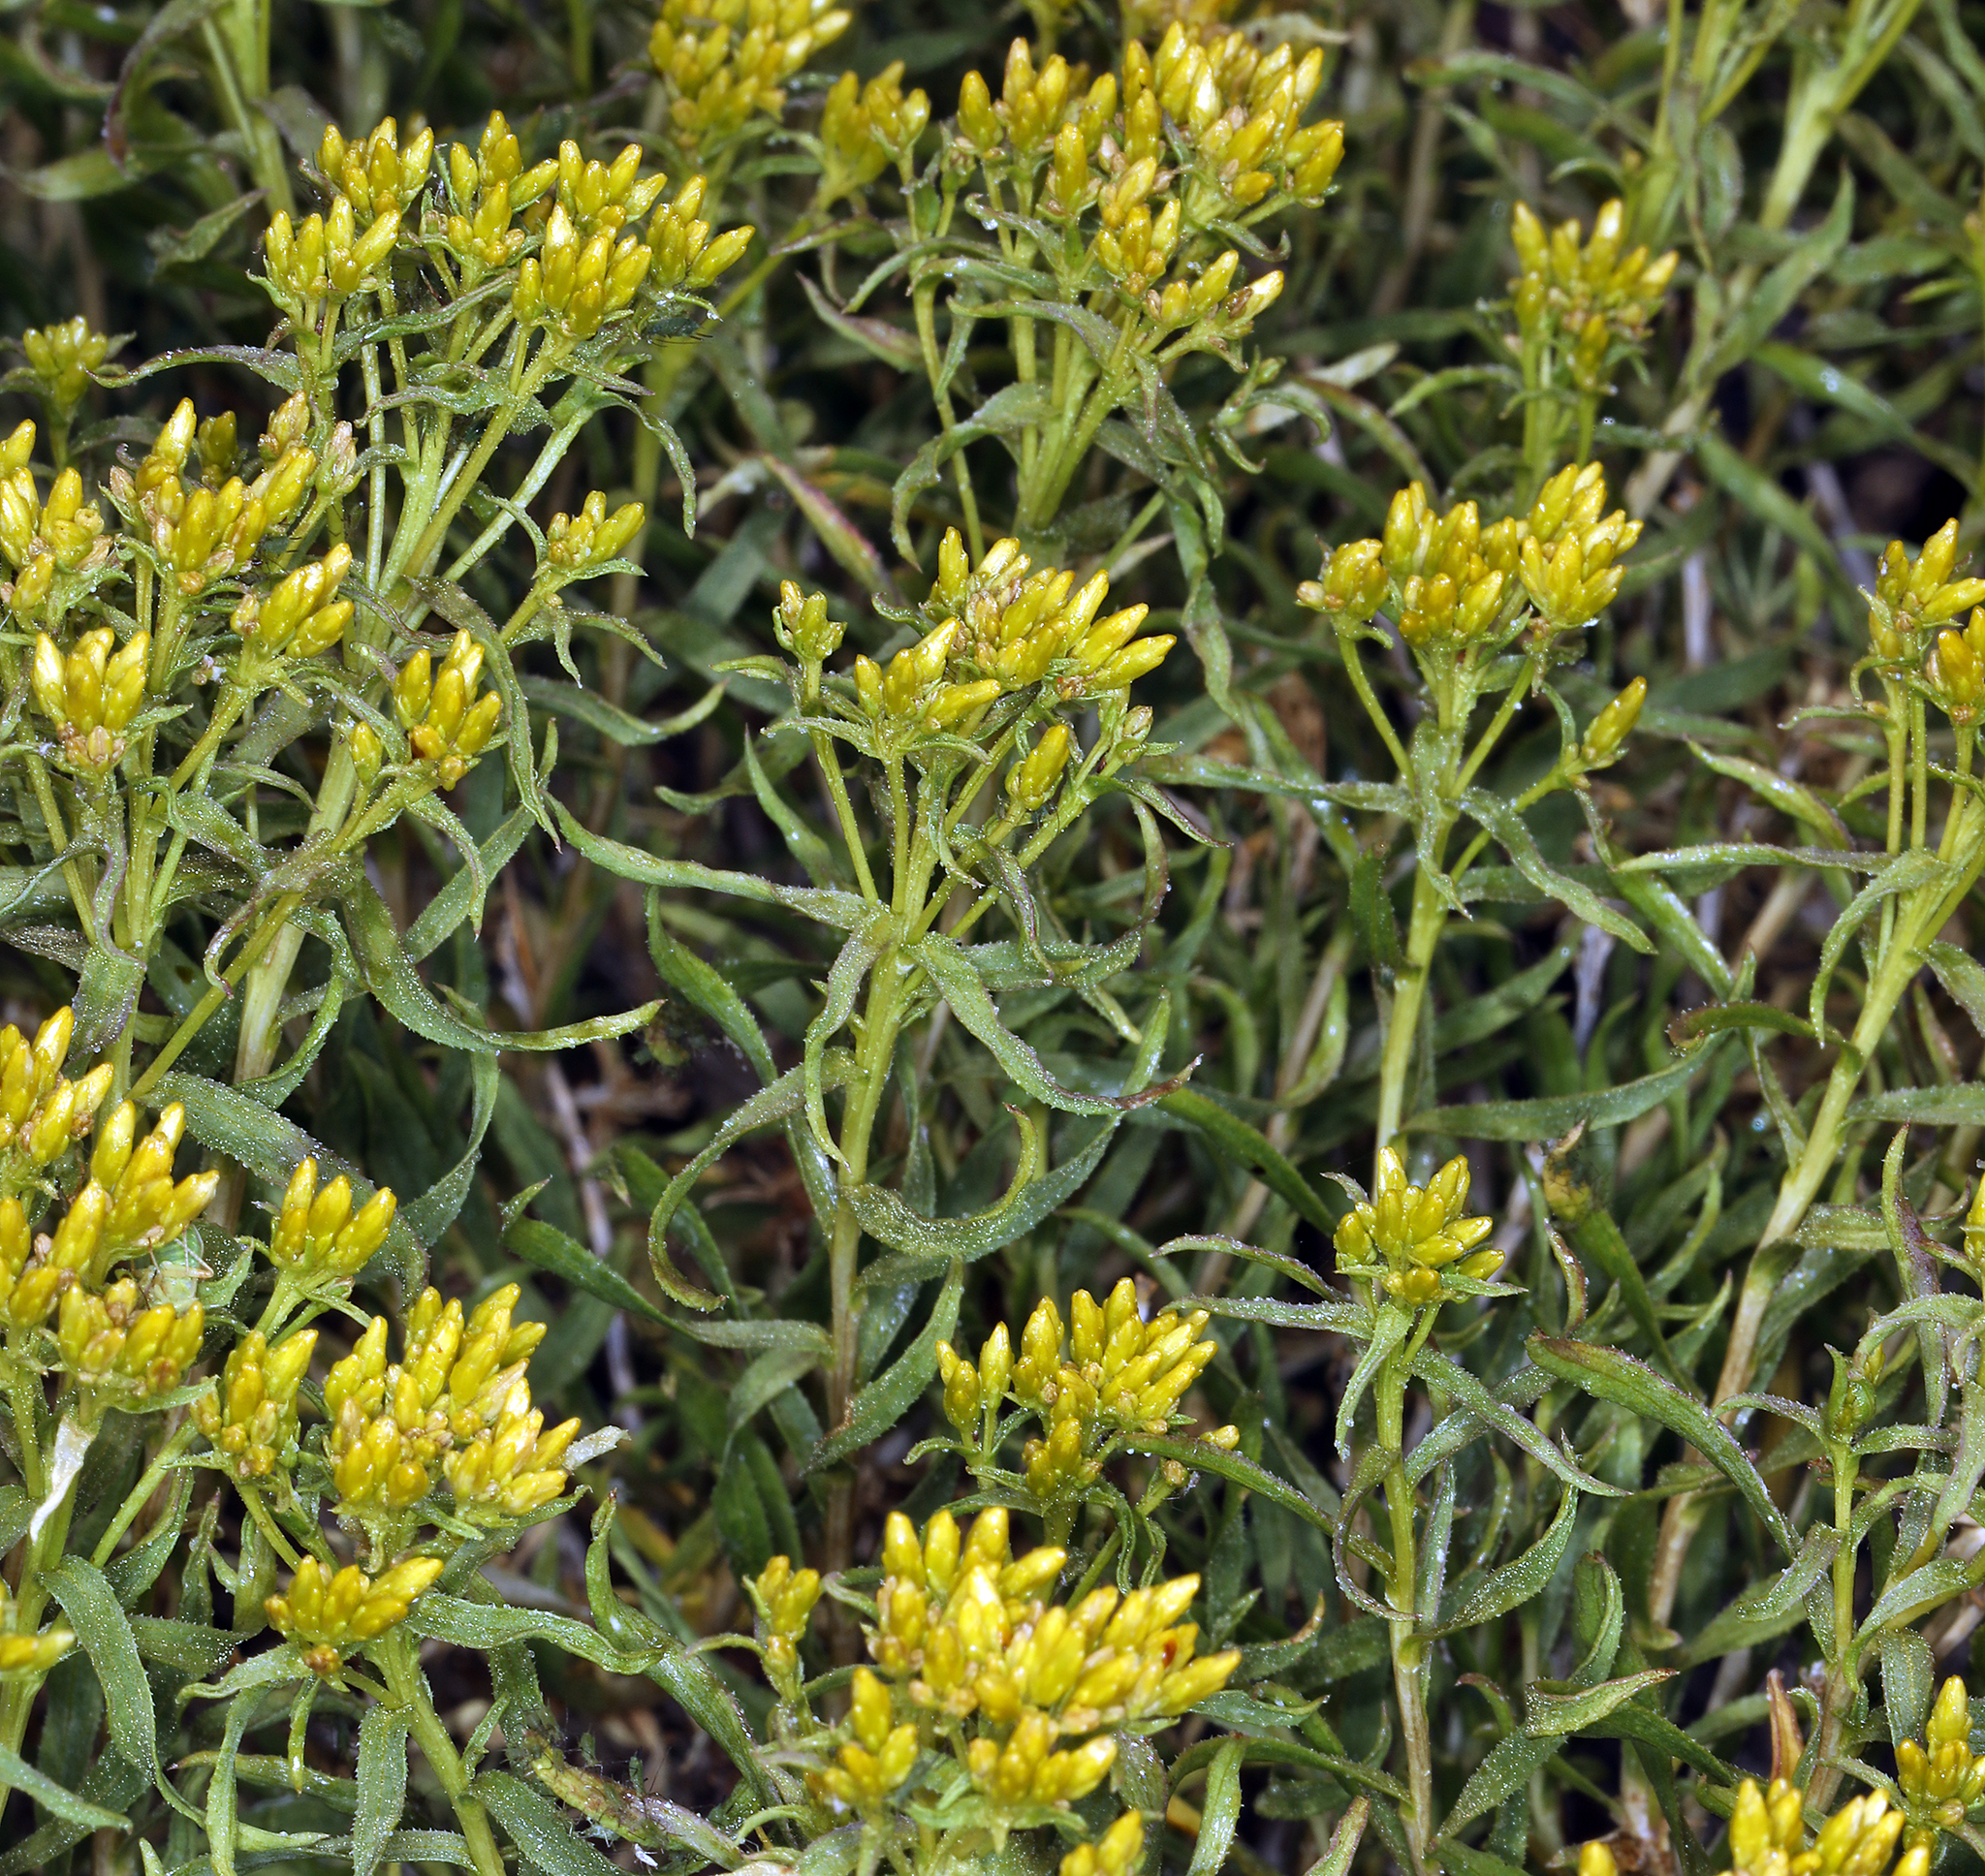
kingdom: Plantae
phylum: Tracheophyta
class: Magnoliopsida
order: Asterales
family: Asteraceae
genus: Chrysothamnus
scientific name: Chrysothamnus viscidiflorus
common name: Yellow rabbitbrush
